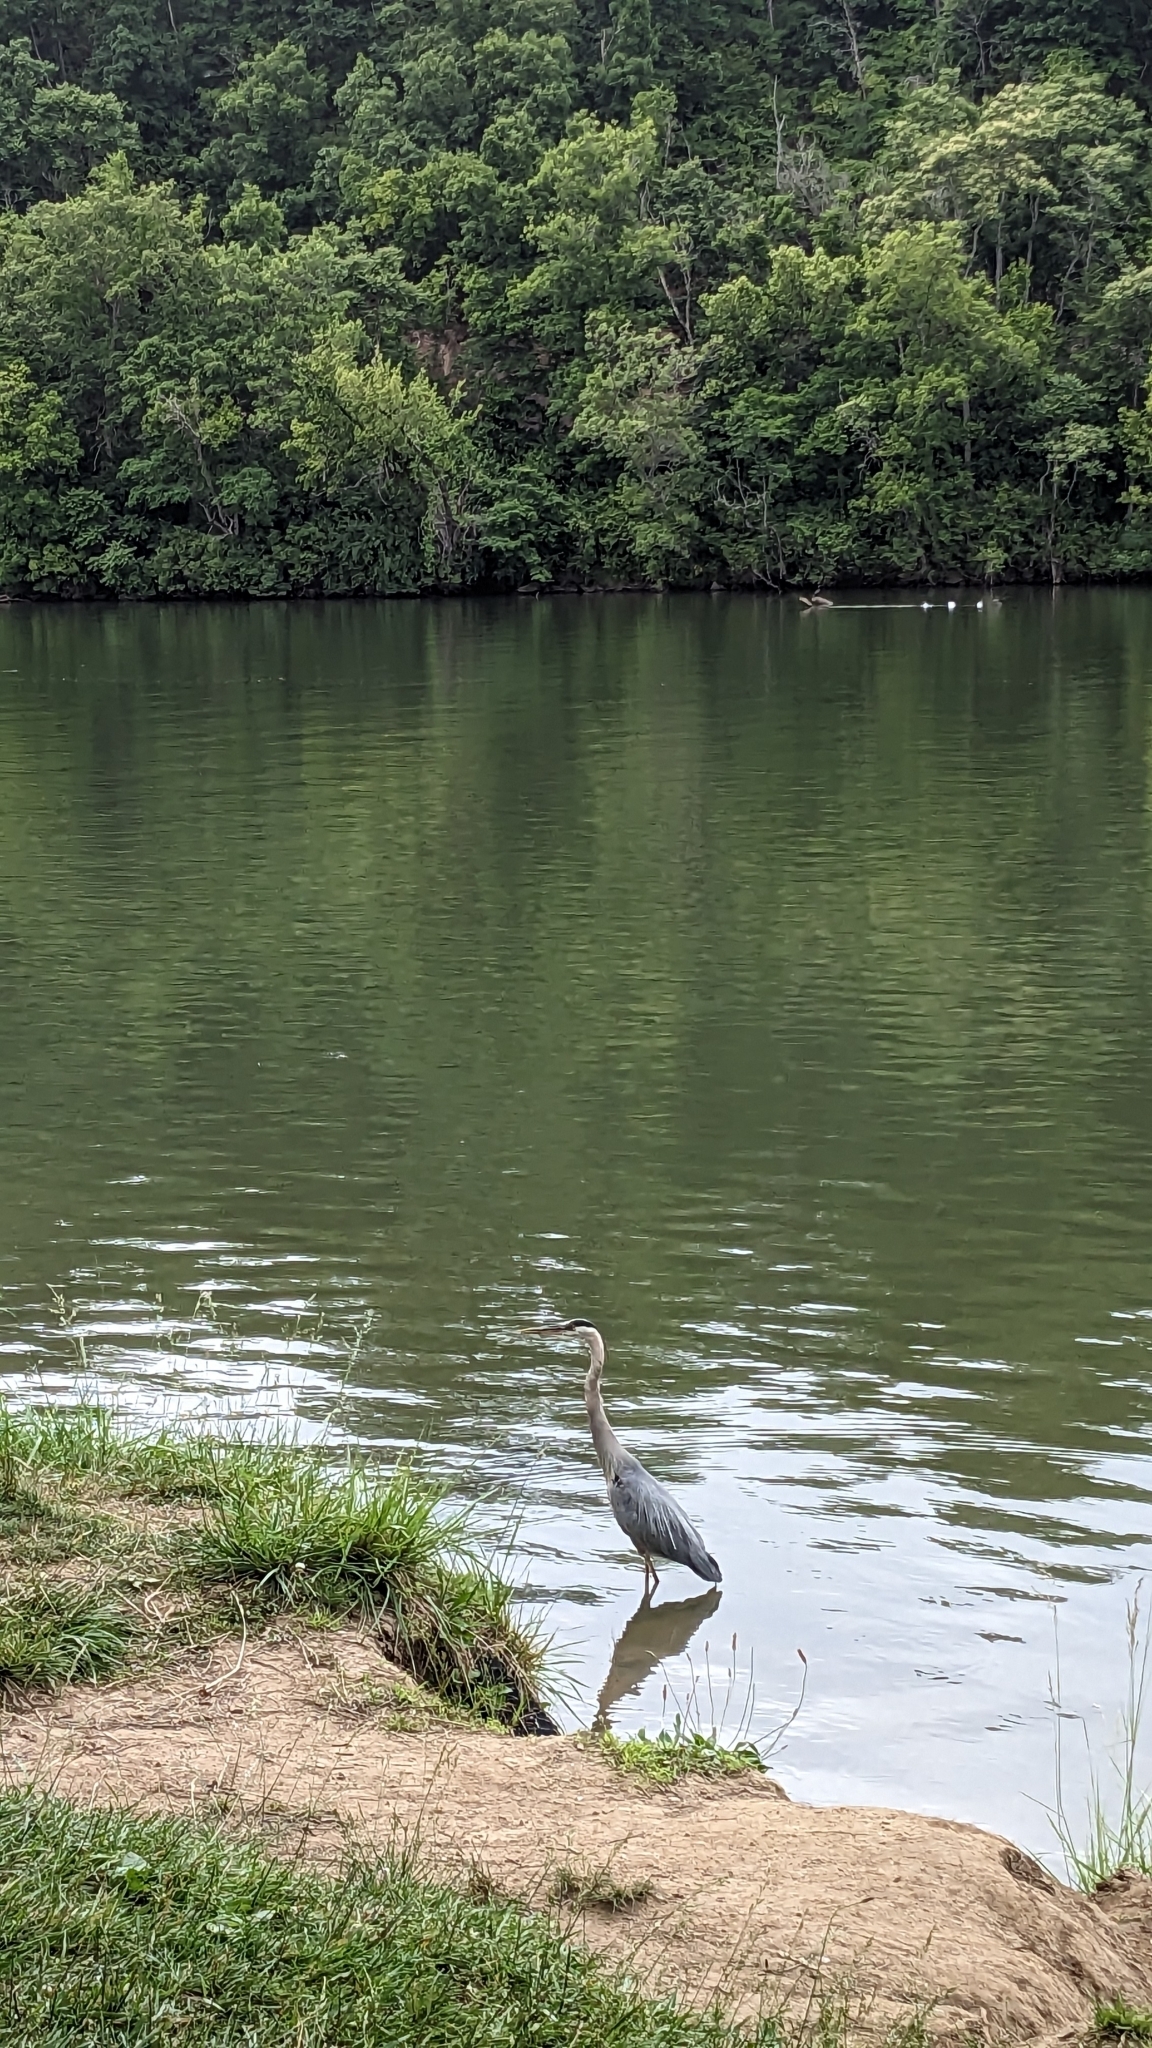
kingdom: Animalia
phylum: Chordata
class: Aves
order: Pelecaniformes
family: Ardeidae
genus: Ardea
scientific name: Ardea herodias
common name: Great blue heron
